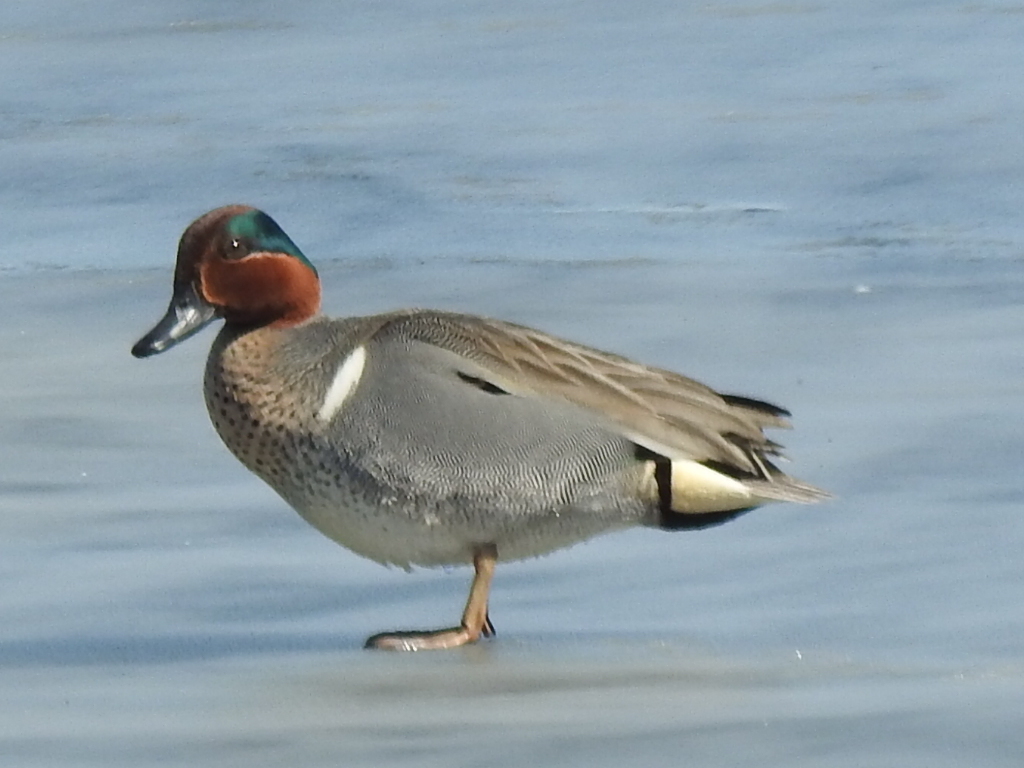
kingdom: Animalia
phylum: Chordata
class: Aves
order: Anseriformes
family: Anatidae
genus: Anas
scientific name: Anas crecca
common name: Eurasian teal
